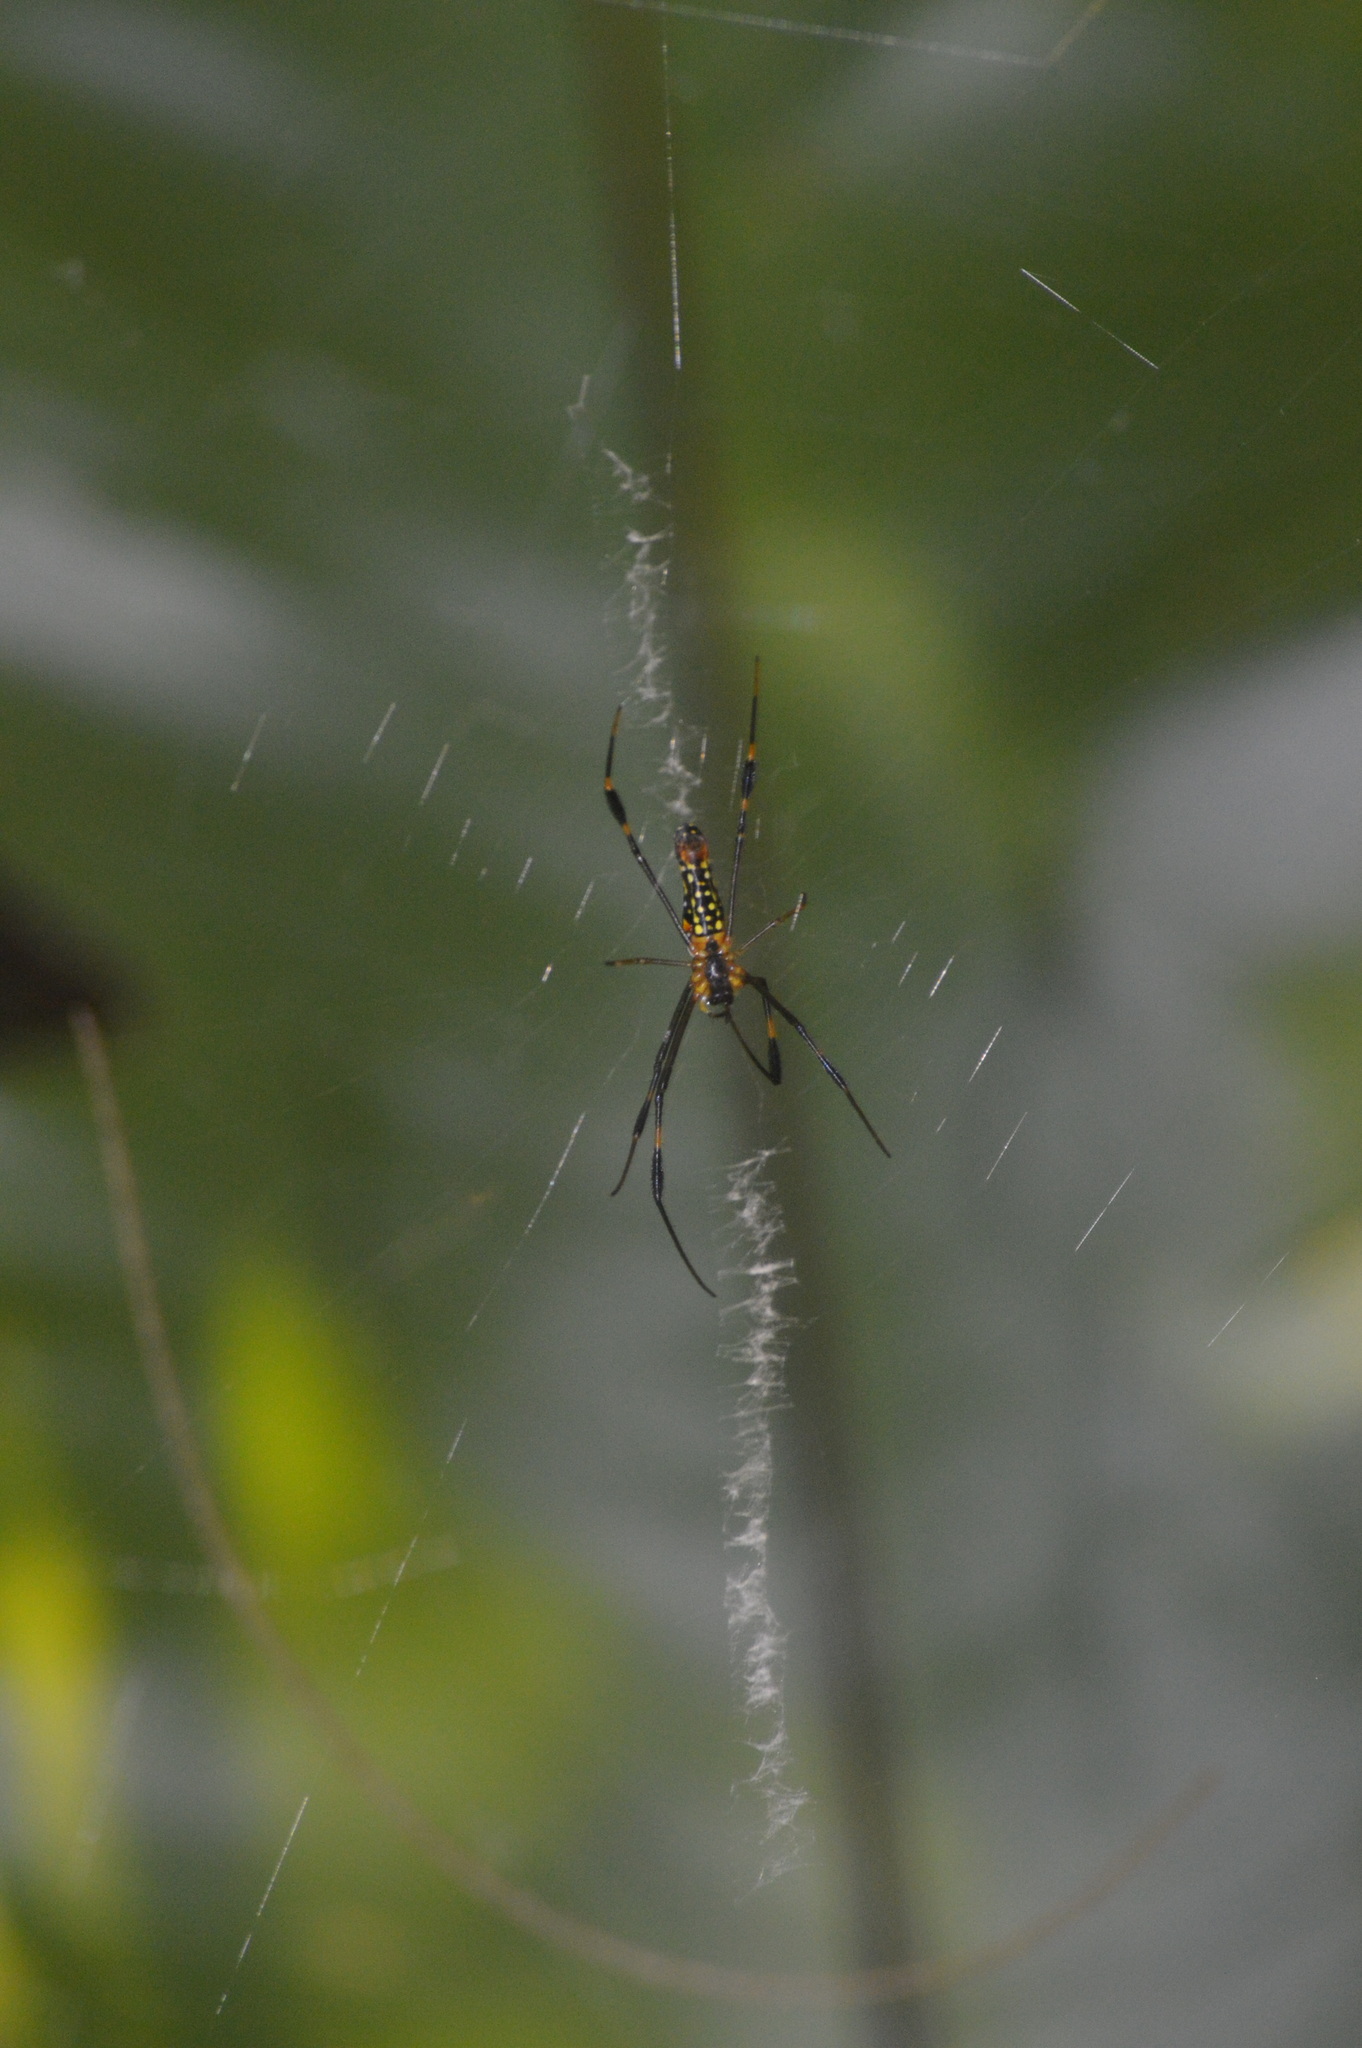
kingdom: Animalia
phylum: Arthropoda
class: Arachnida
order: Araneae
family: Araneidae
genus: Nephila
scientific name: Nephila pilipes
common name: Giant golden orb weaver
